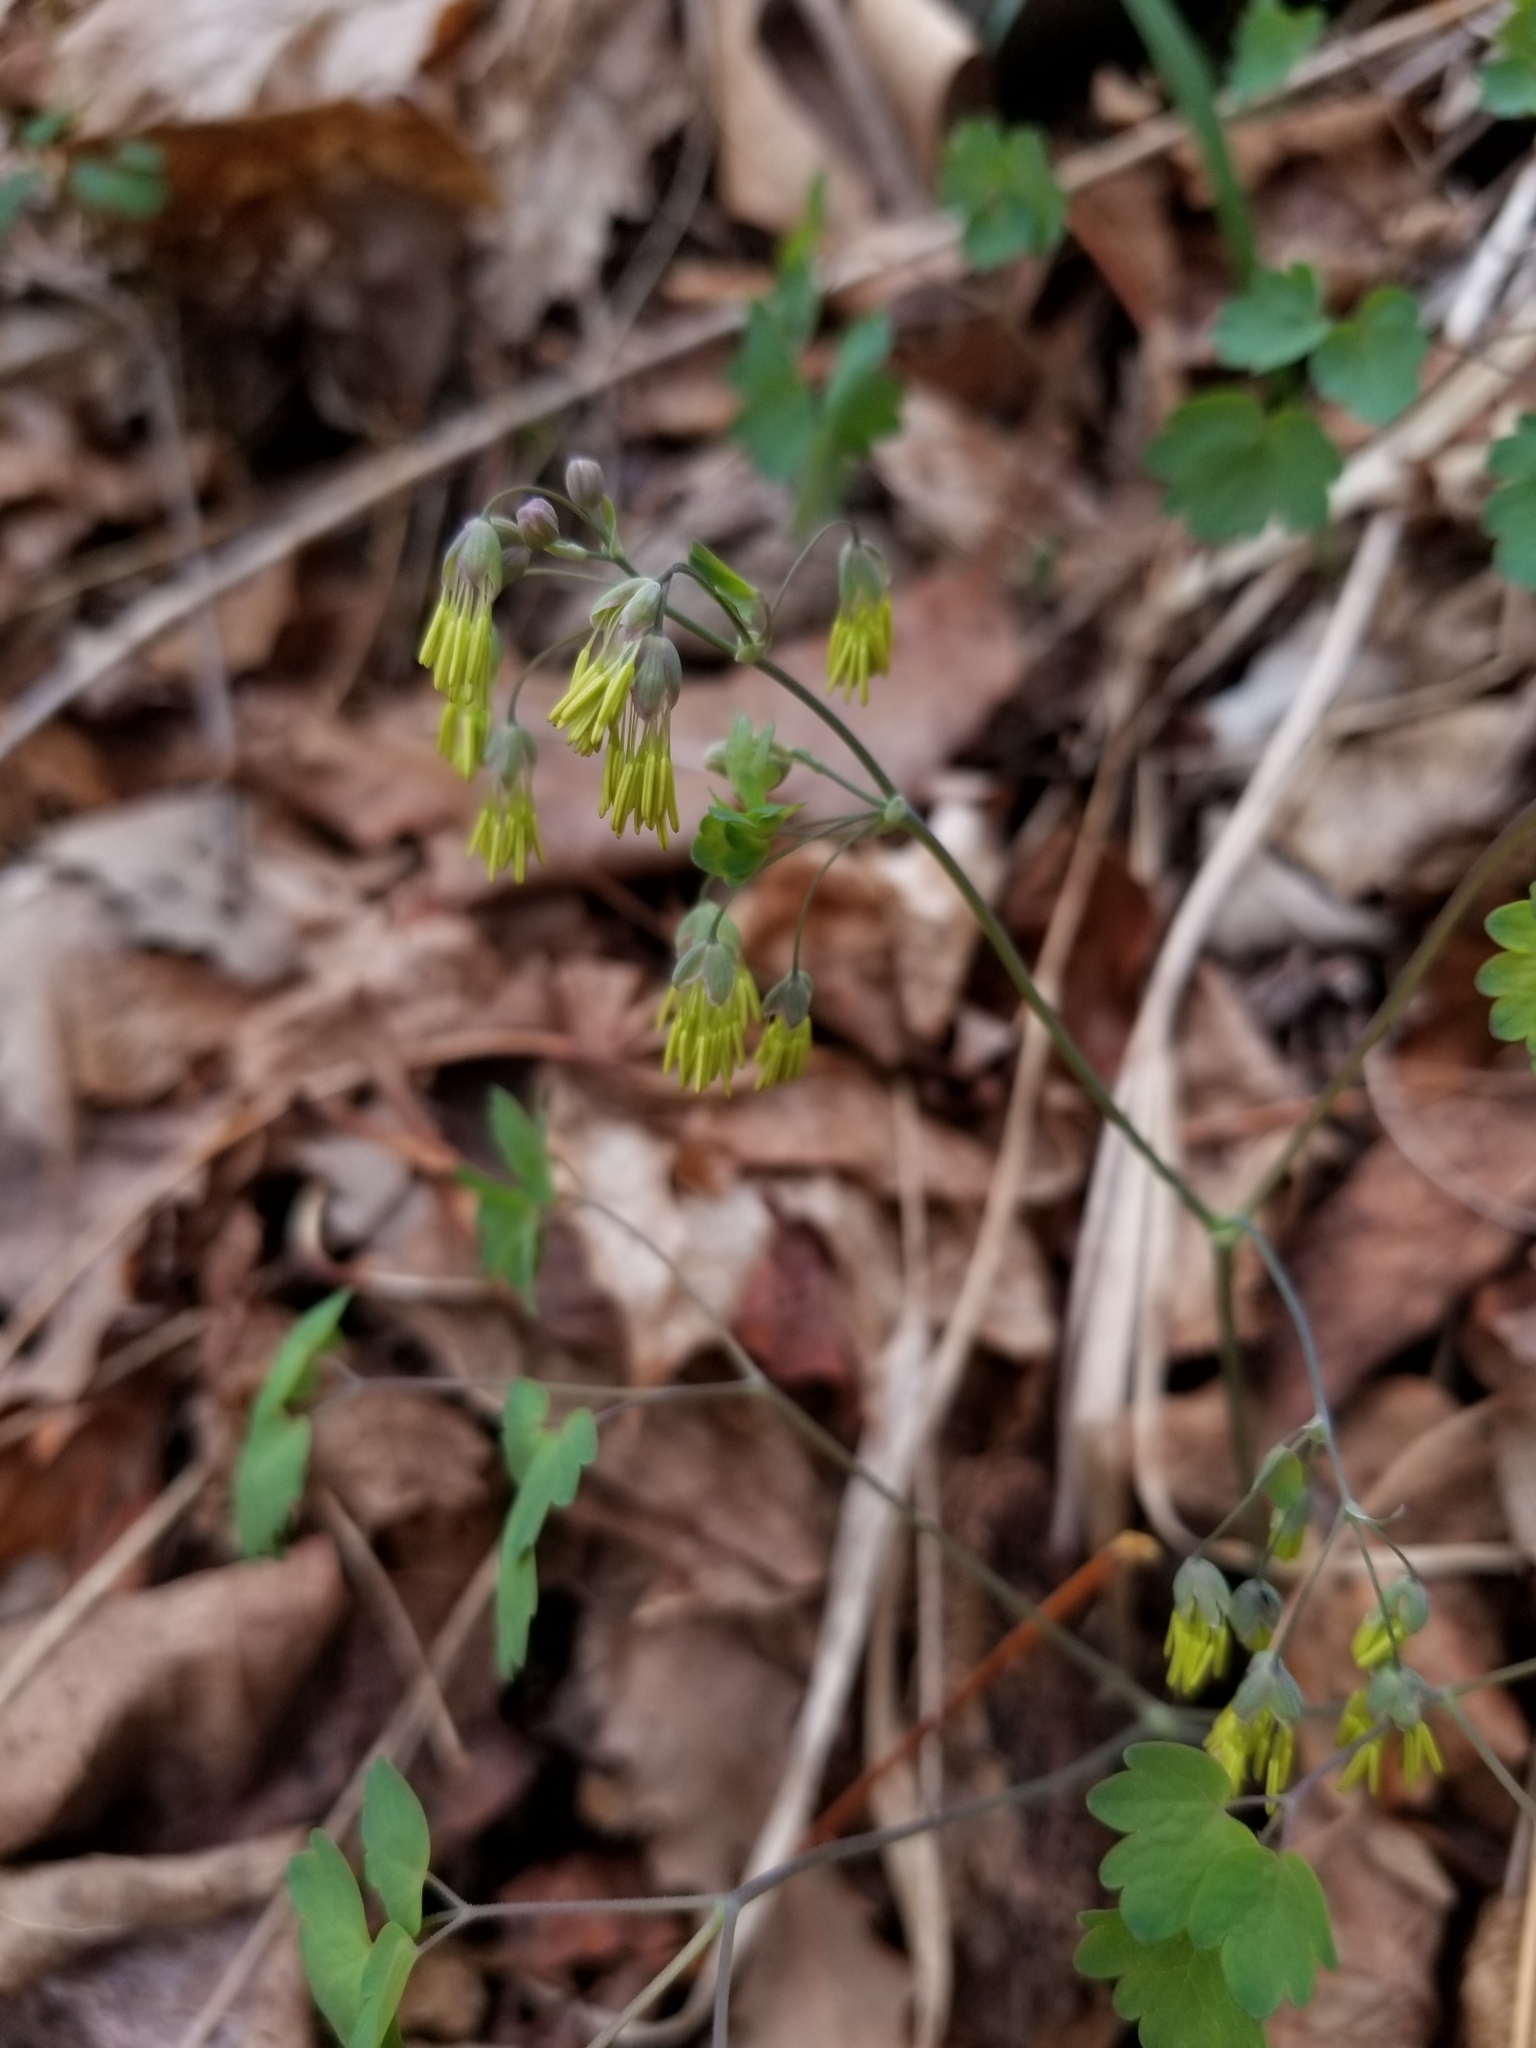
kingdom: Plantae
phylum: Tracheophyta
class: Magnoliopsida
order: Ranunculales
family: Ranunculaceae
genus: Thalictrum
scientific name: Thalictrum dioicum
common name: Early meadow-rue
